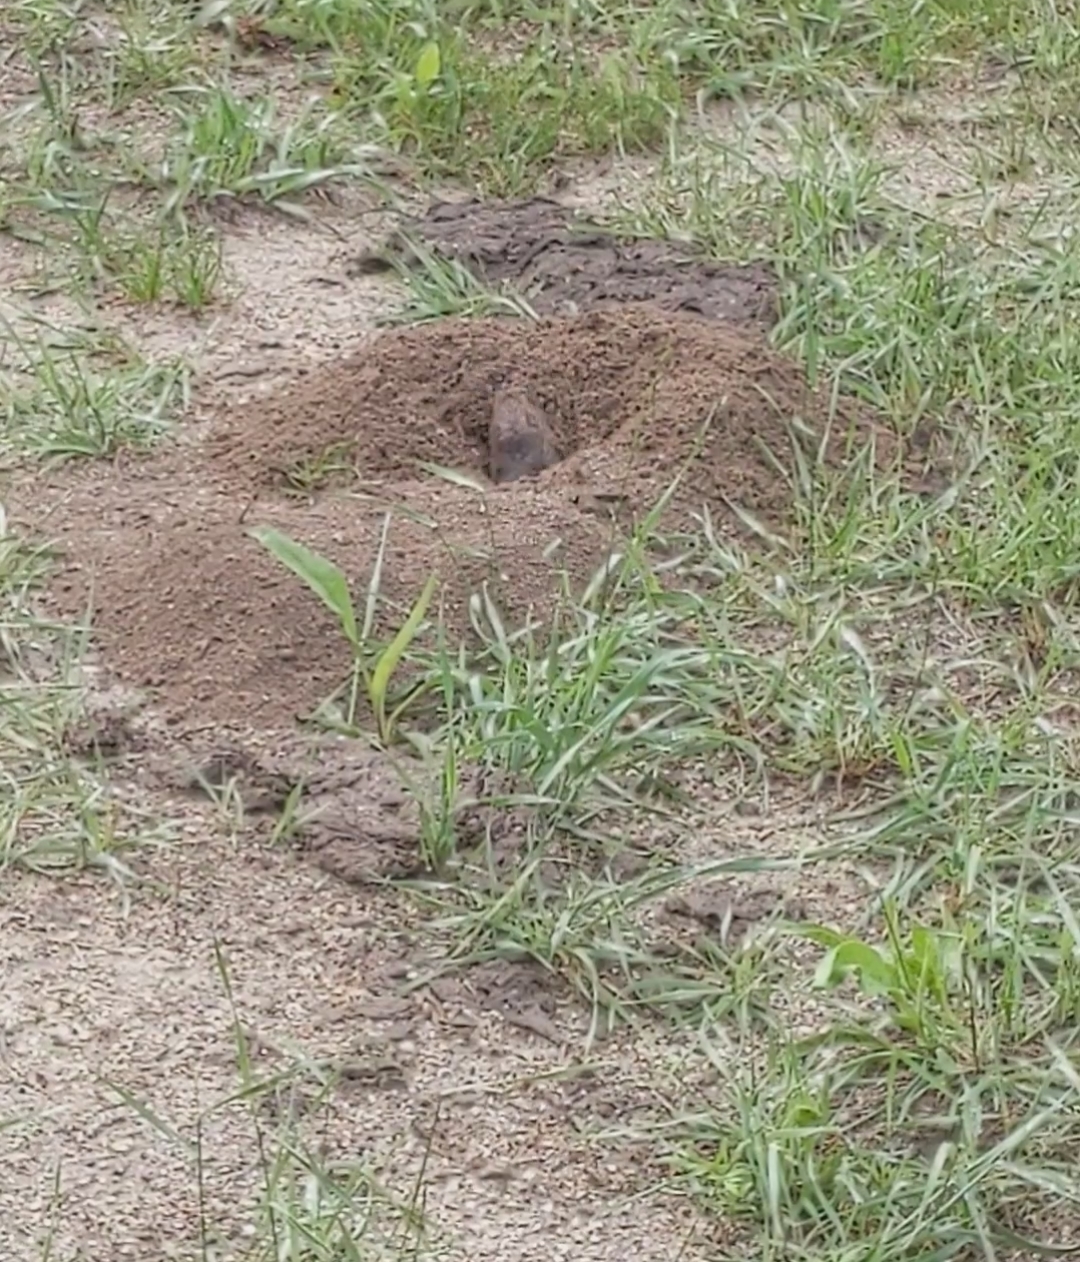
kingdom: Animalia
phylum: Chordata
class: Mammalia
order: Rodentia
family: Geomyidae
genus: Thomomys
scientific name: Thomomys bottae
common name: Botta's pocket gopher
